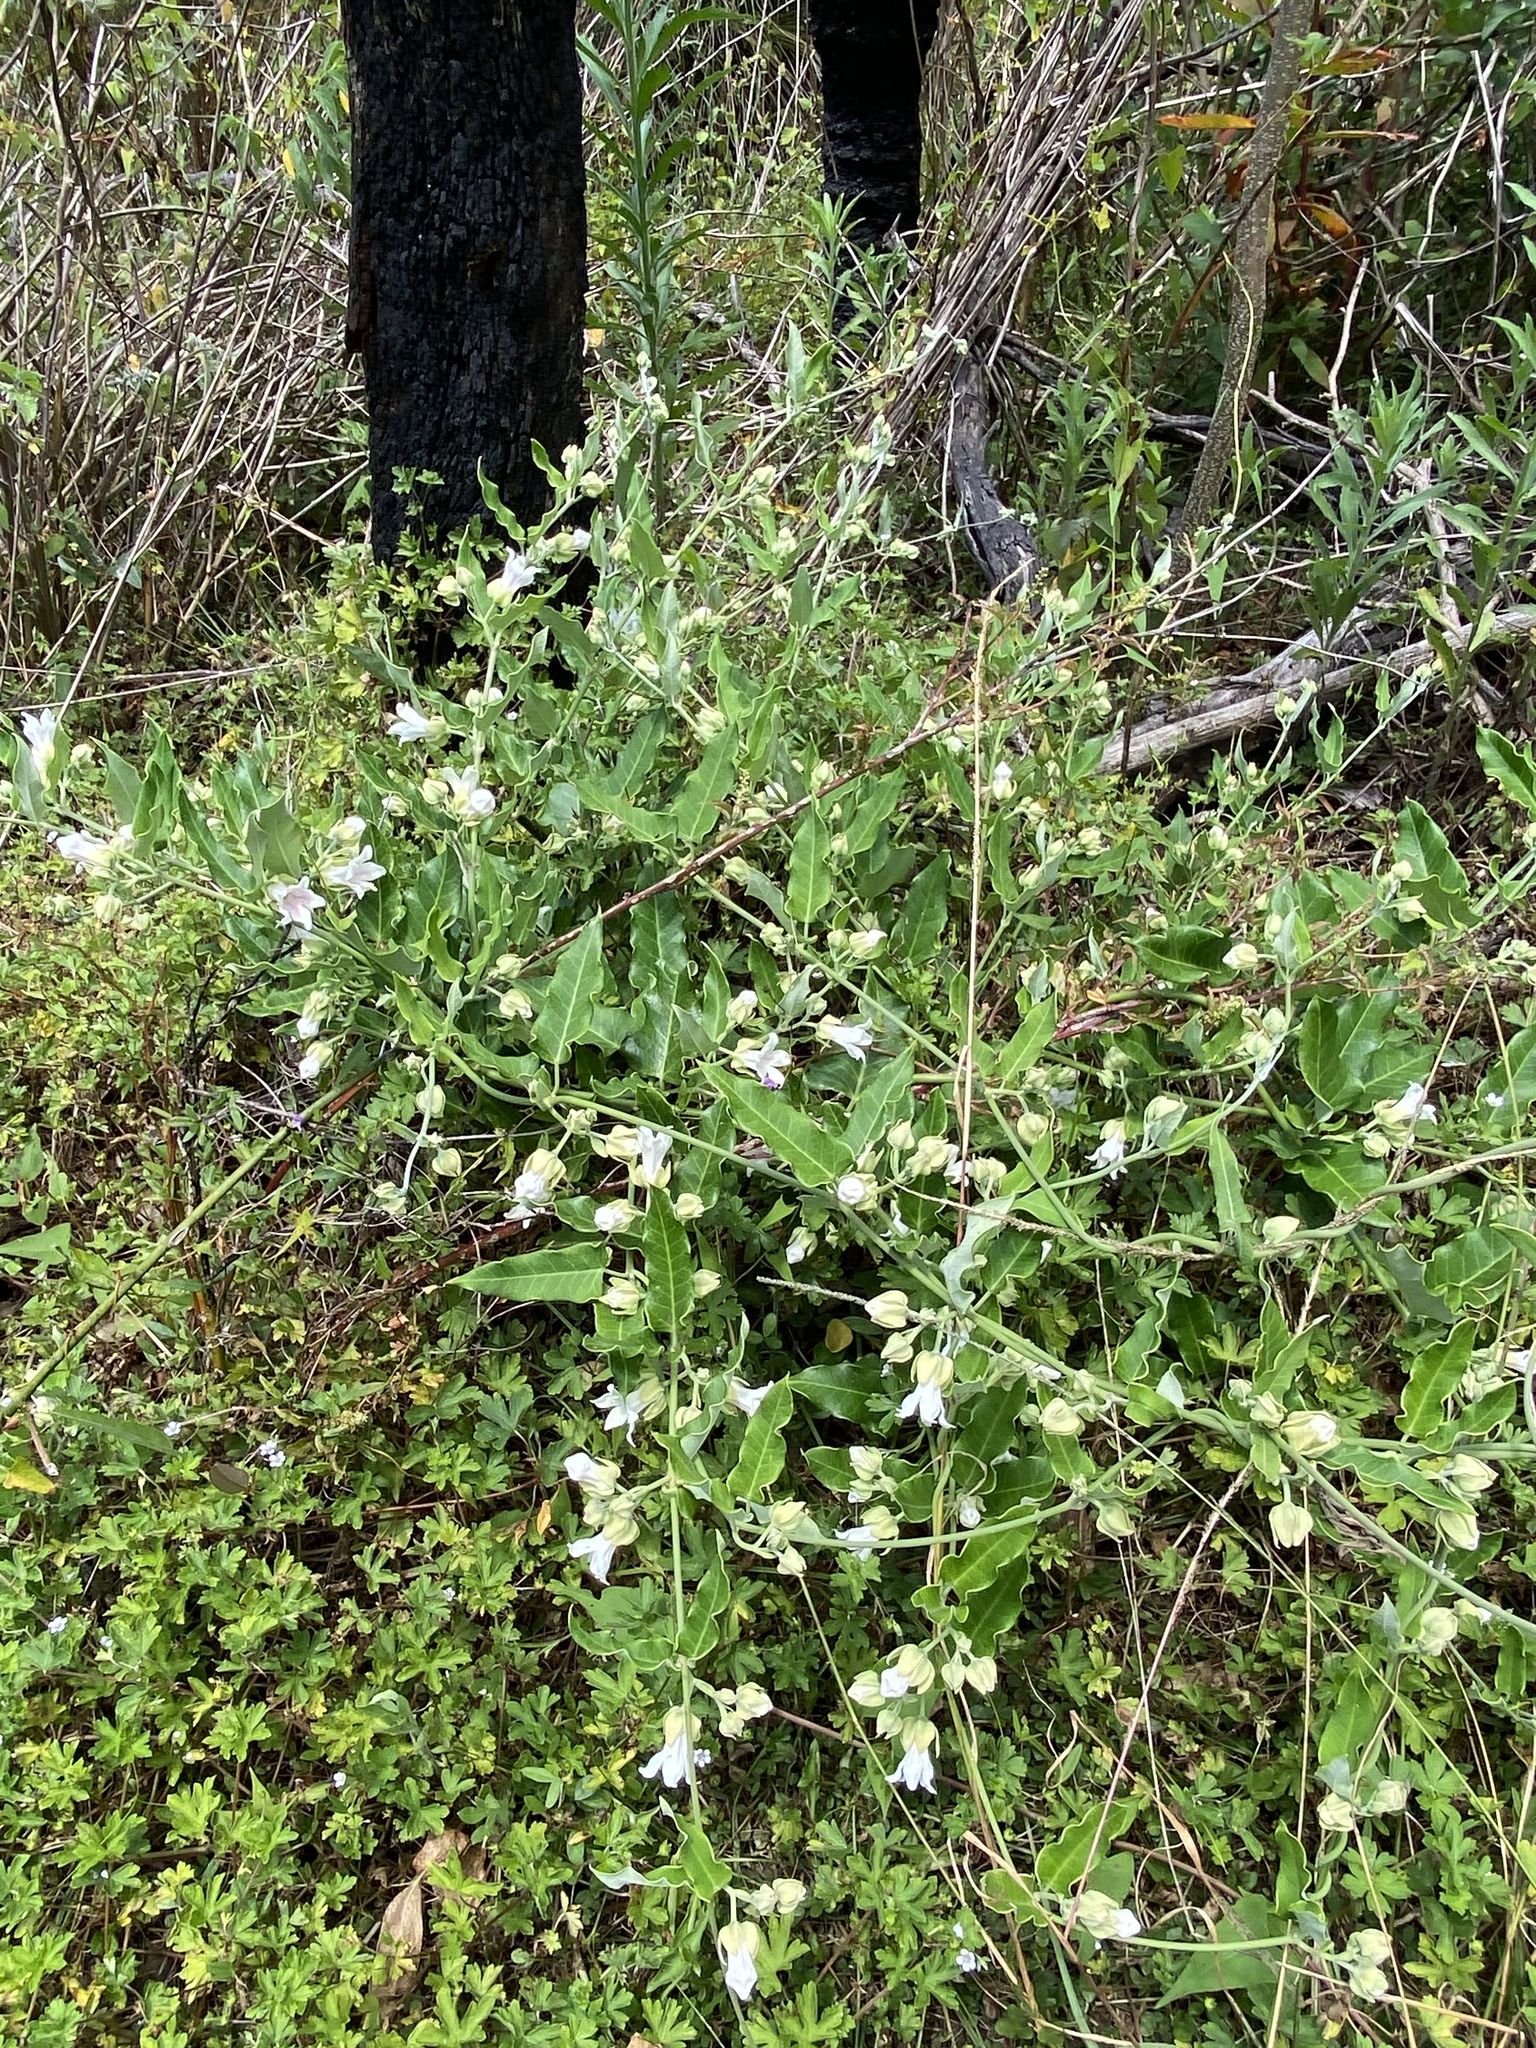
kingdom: Plantae
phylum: Tracheophyta
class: Magnoliopsida
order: Gentianales
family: Apocynaceae
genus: Araujia
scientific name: Araujia sericifera
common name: White bladderflower
